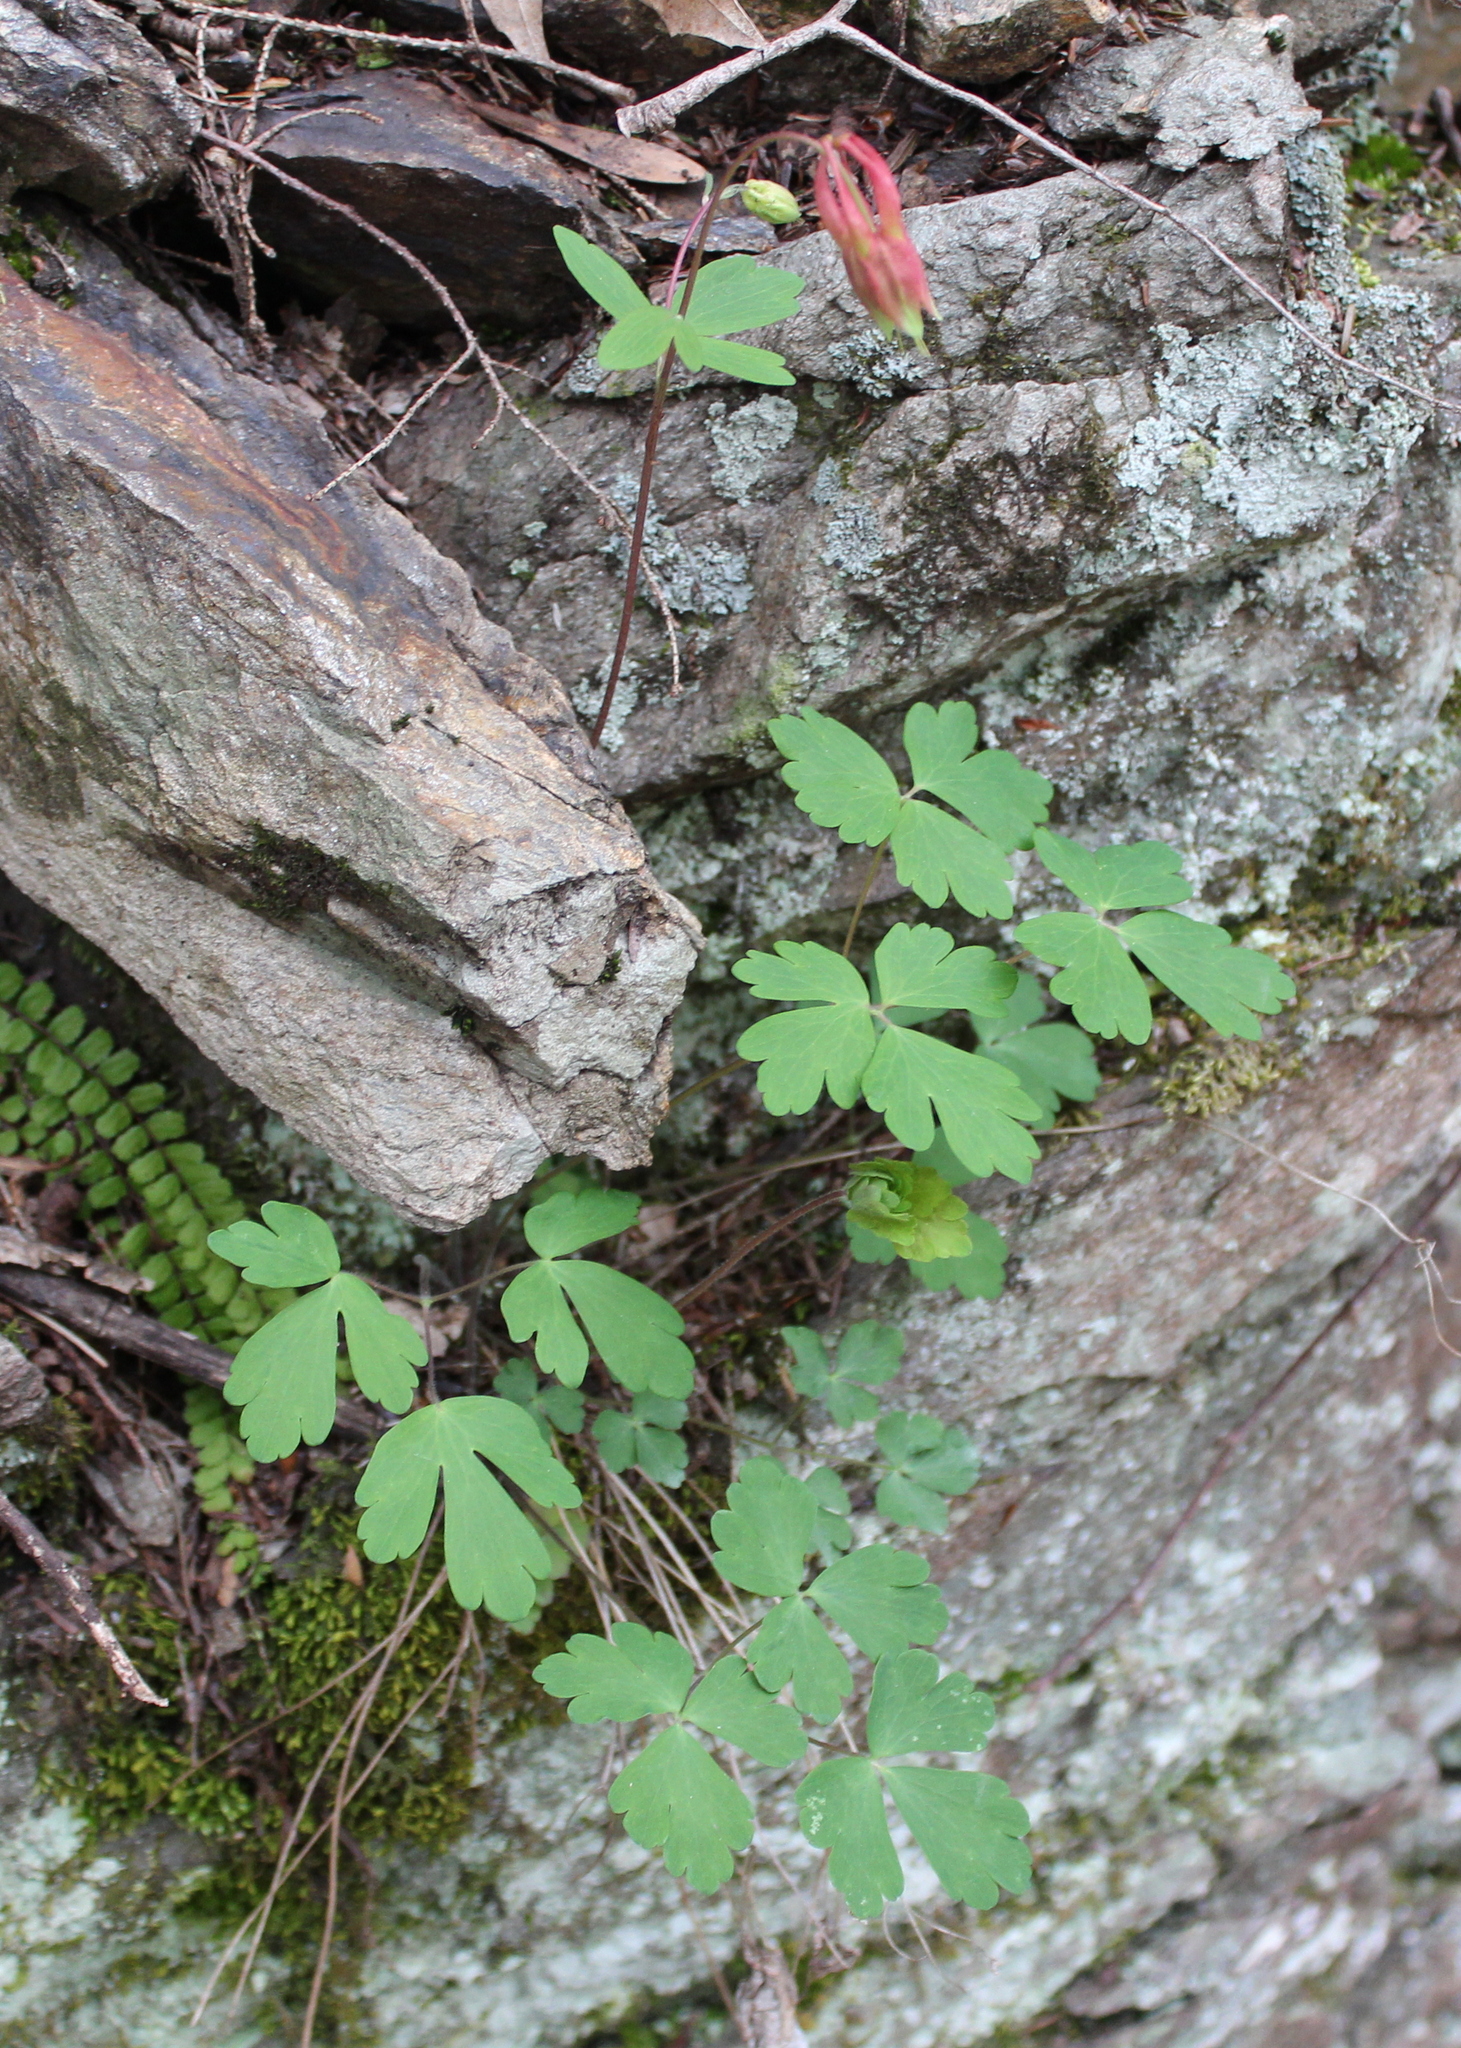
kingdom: Plantae
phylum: Tracheophyta
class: Magnoliopsida
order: Ranunculales
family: Ranunculaceae
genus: Aquilegia
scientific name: Aquilegia canadensis
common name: American columbine
